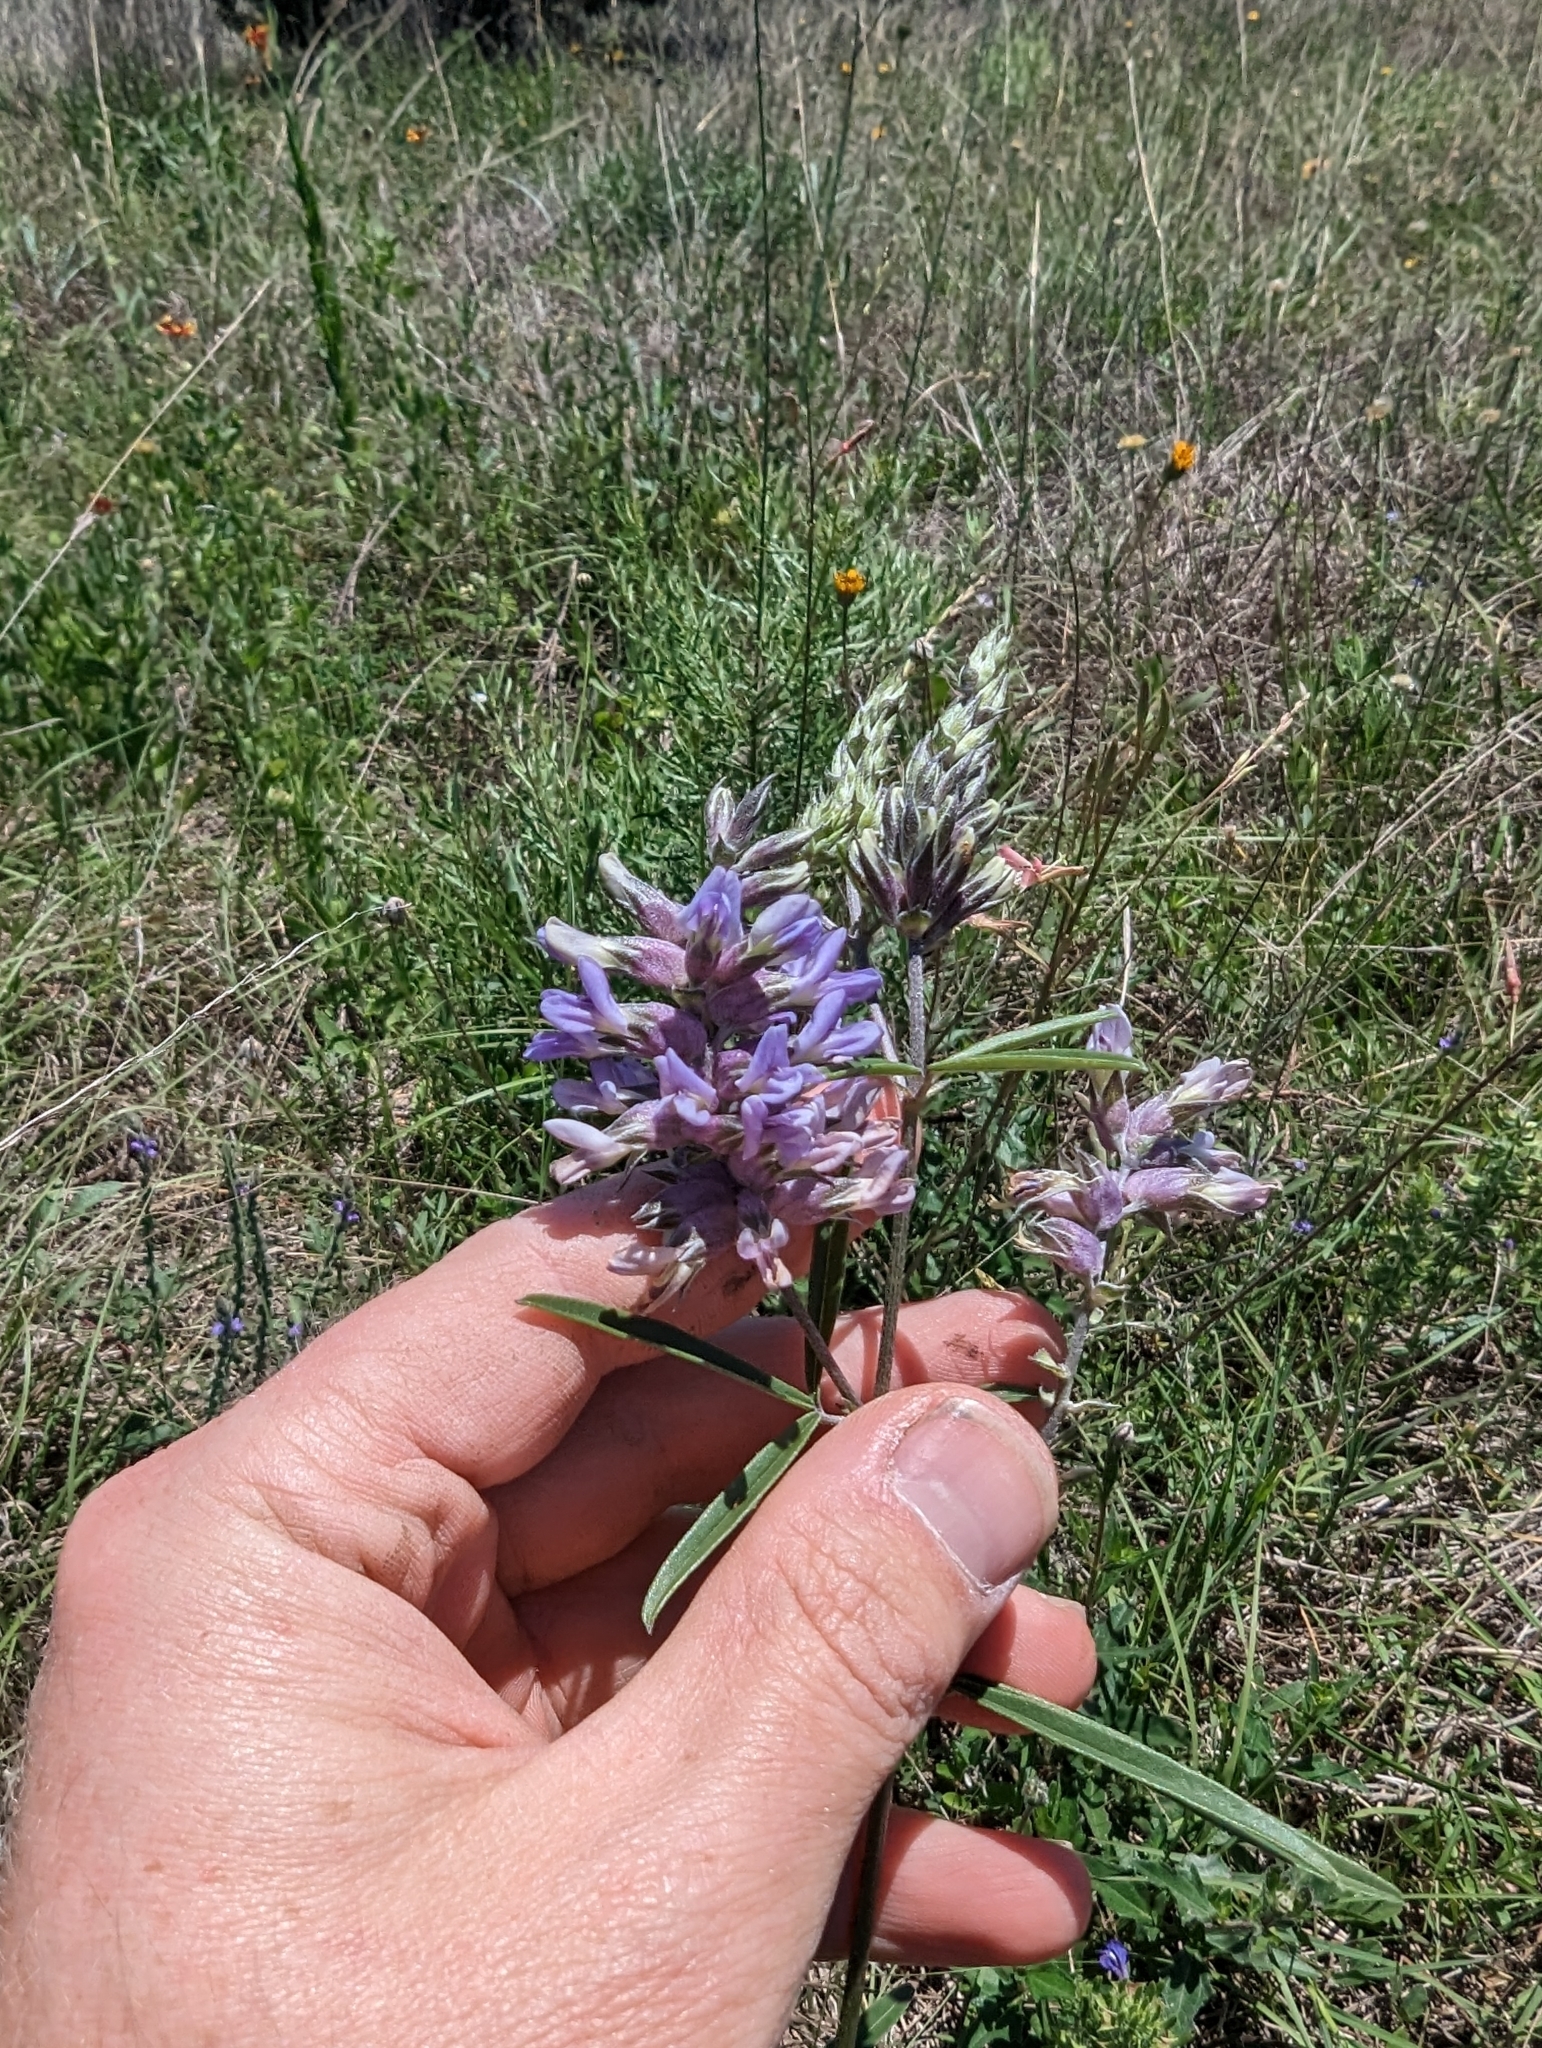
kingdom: Plantae
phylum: Tracheophyta
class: Magnoliopsida
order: Fabales
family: Fabaceae
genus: Pediomelum
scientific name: Pediomelum cyphocalyx
